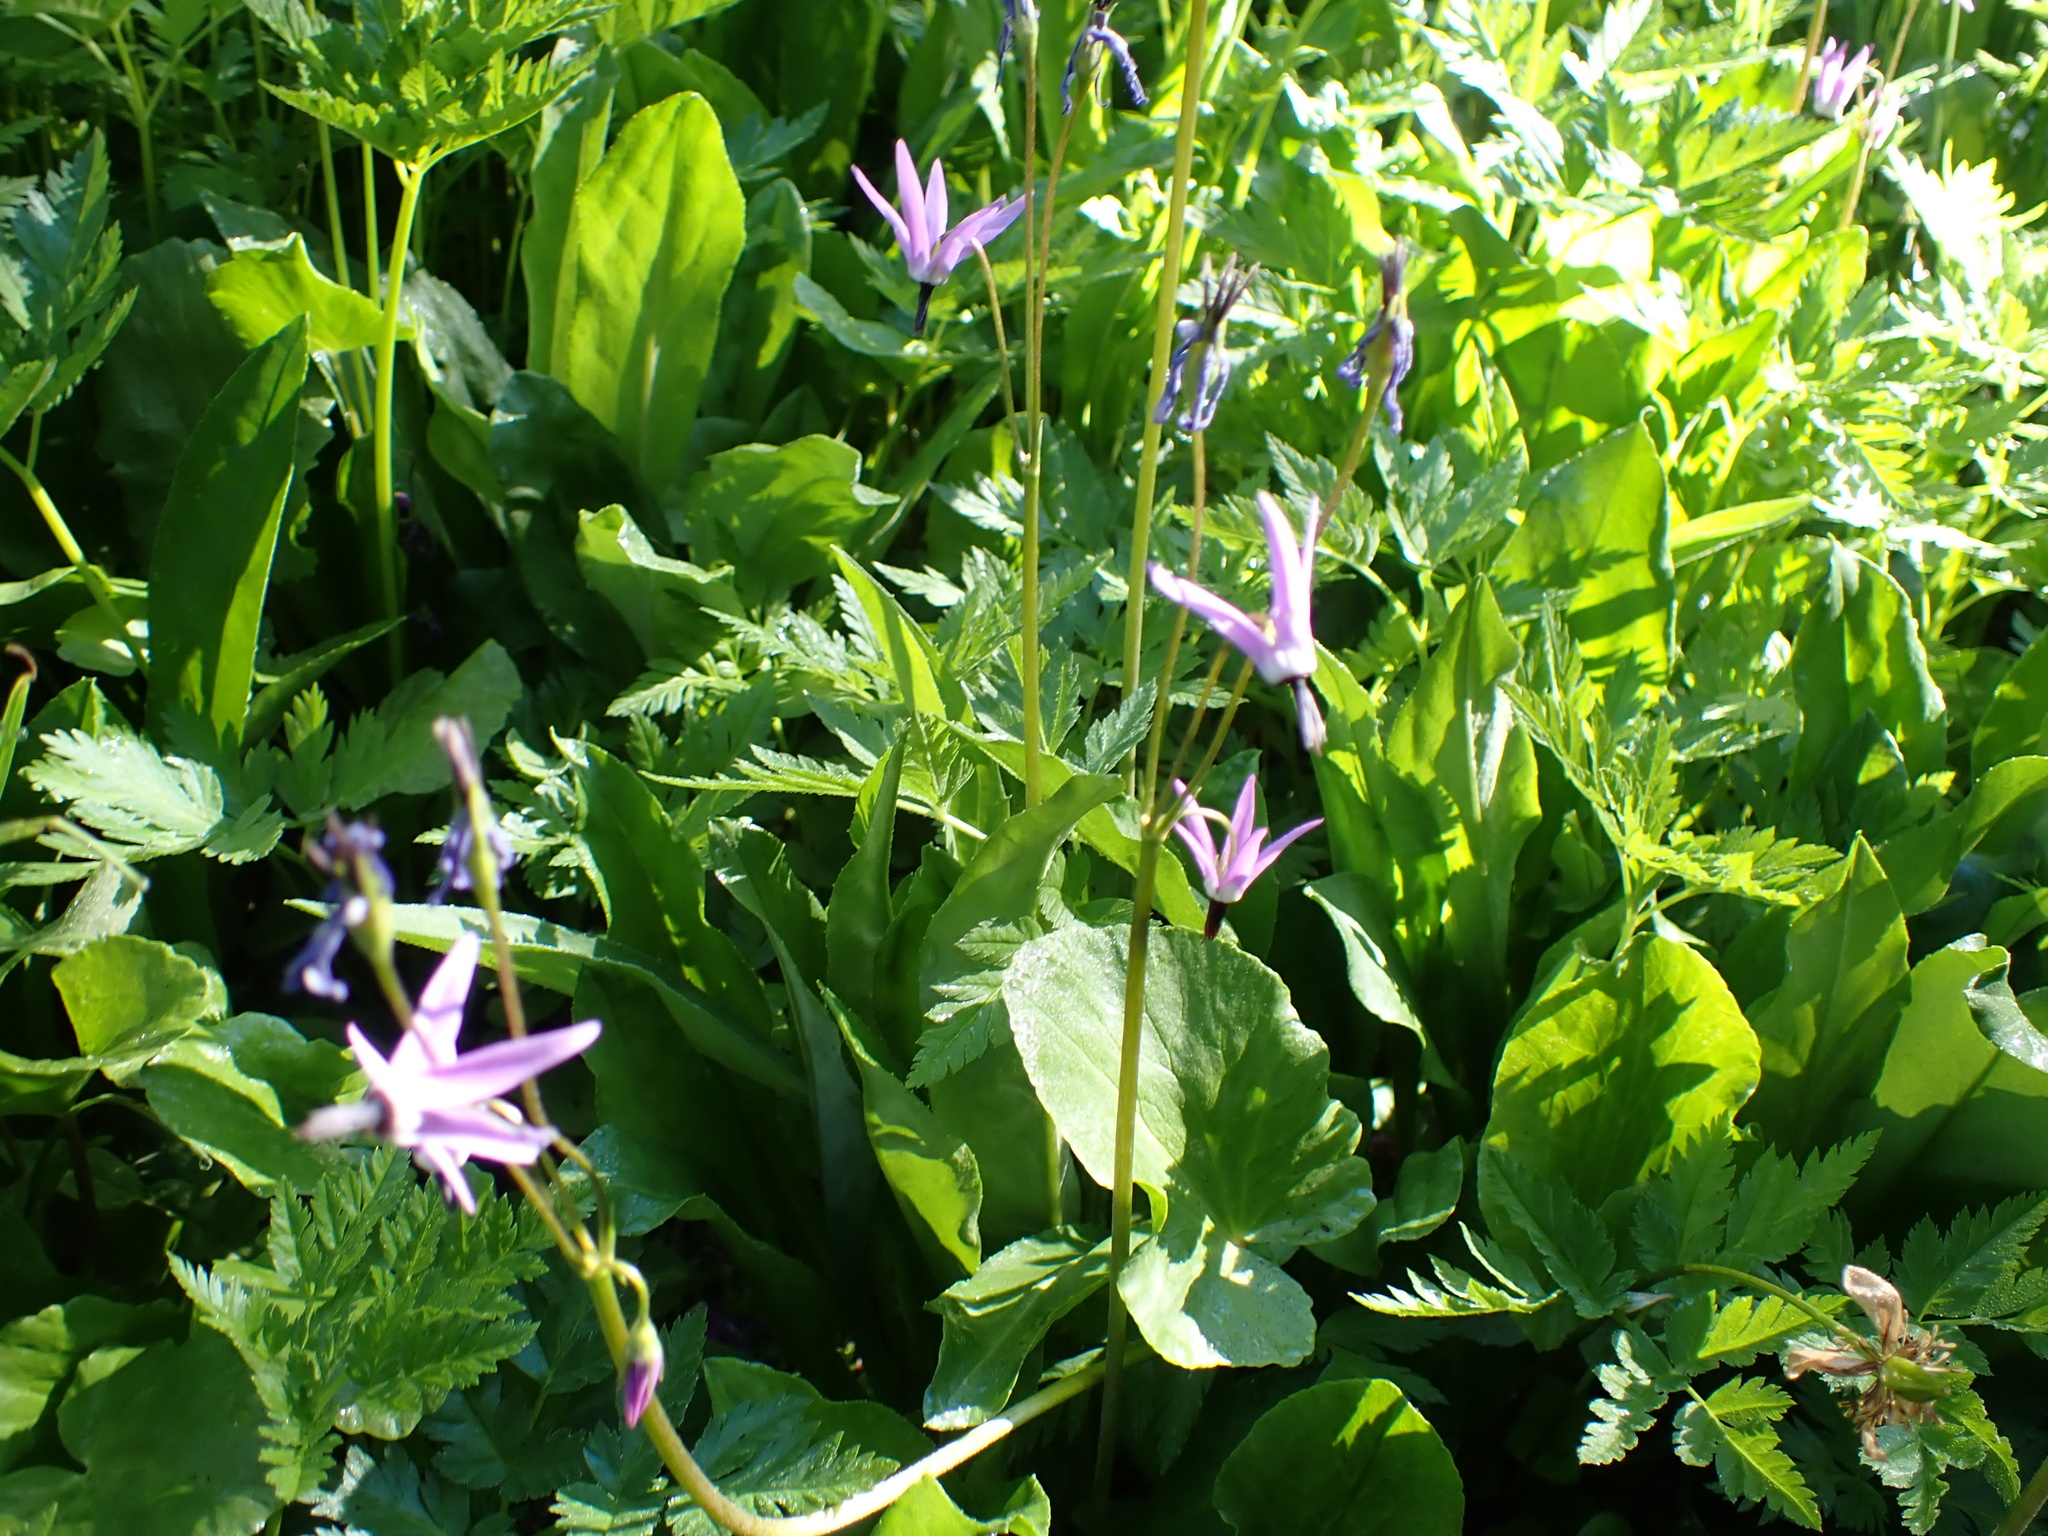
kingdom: Plantae
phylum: Tracheophyta
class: Magnoliopsida
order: Ericales
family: Primulaceae
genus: Dodecatheon
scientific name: Dodecatheon jeffreyanum
